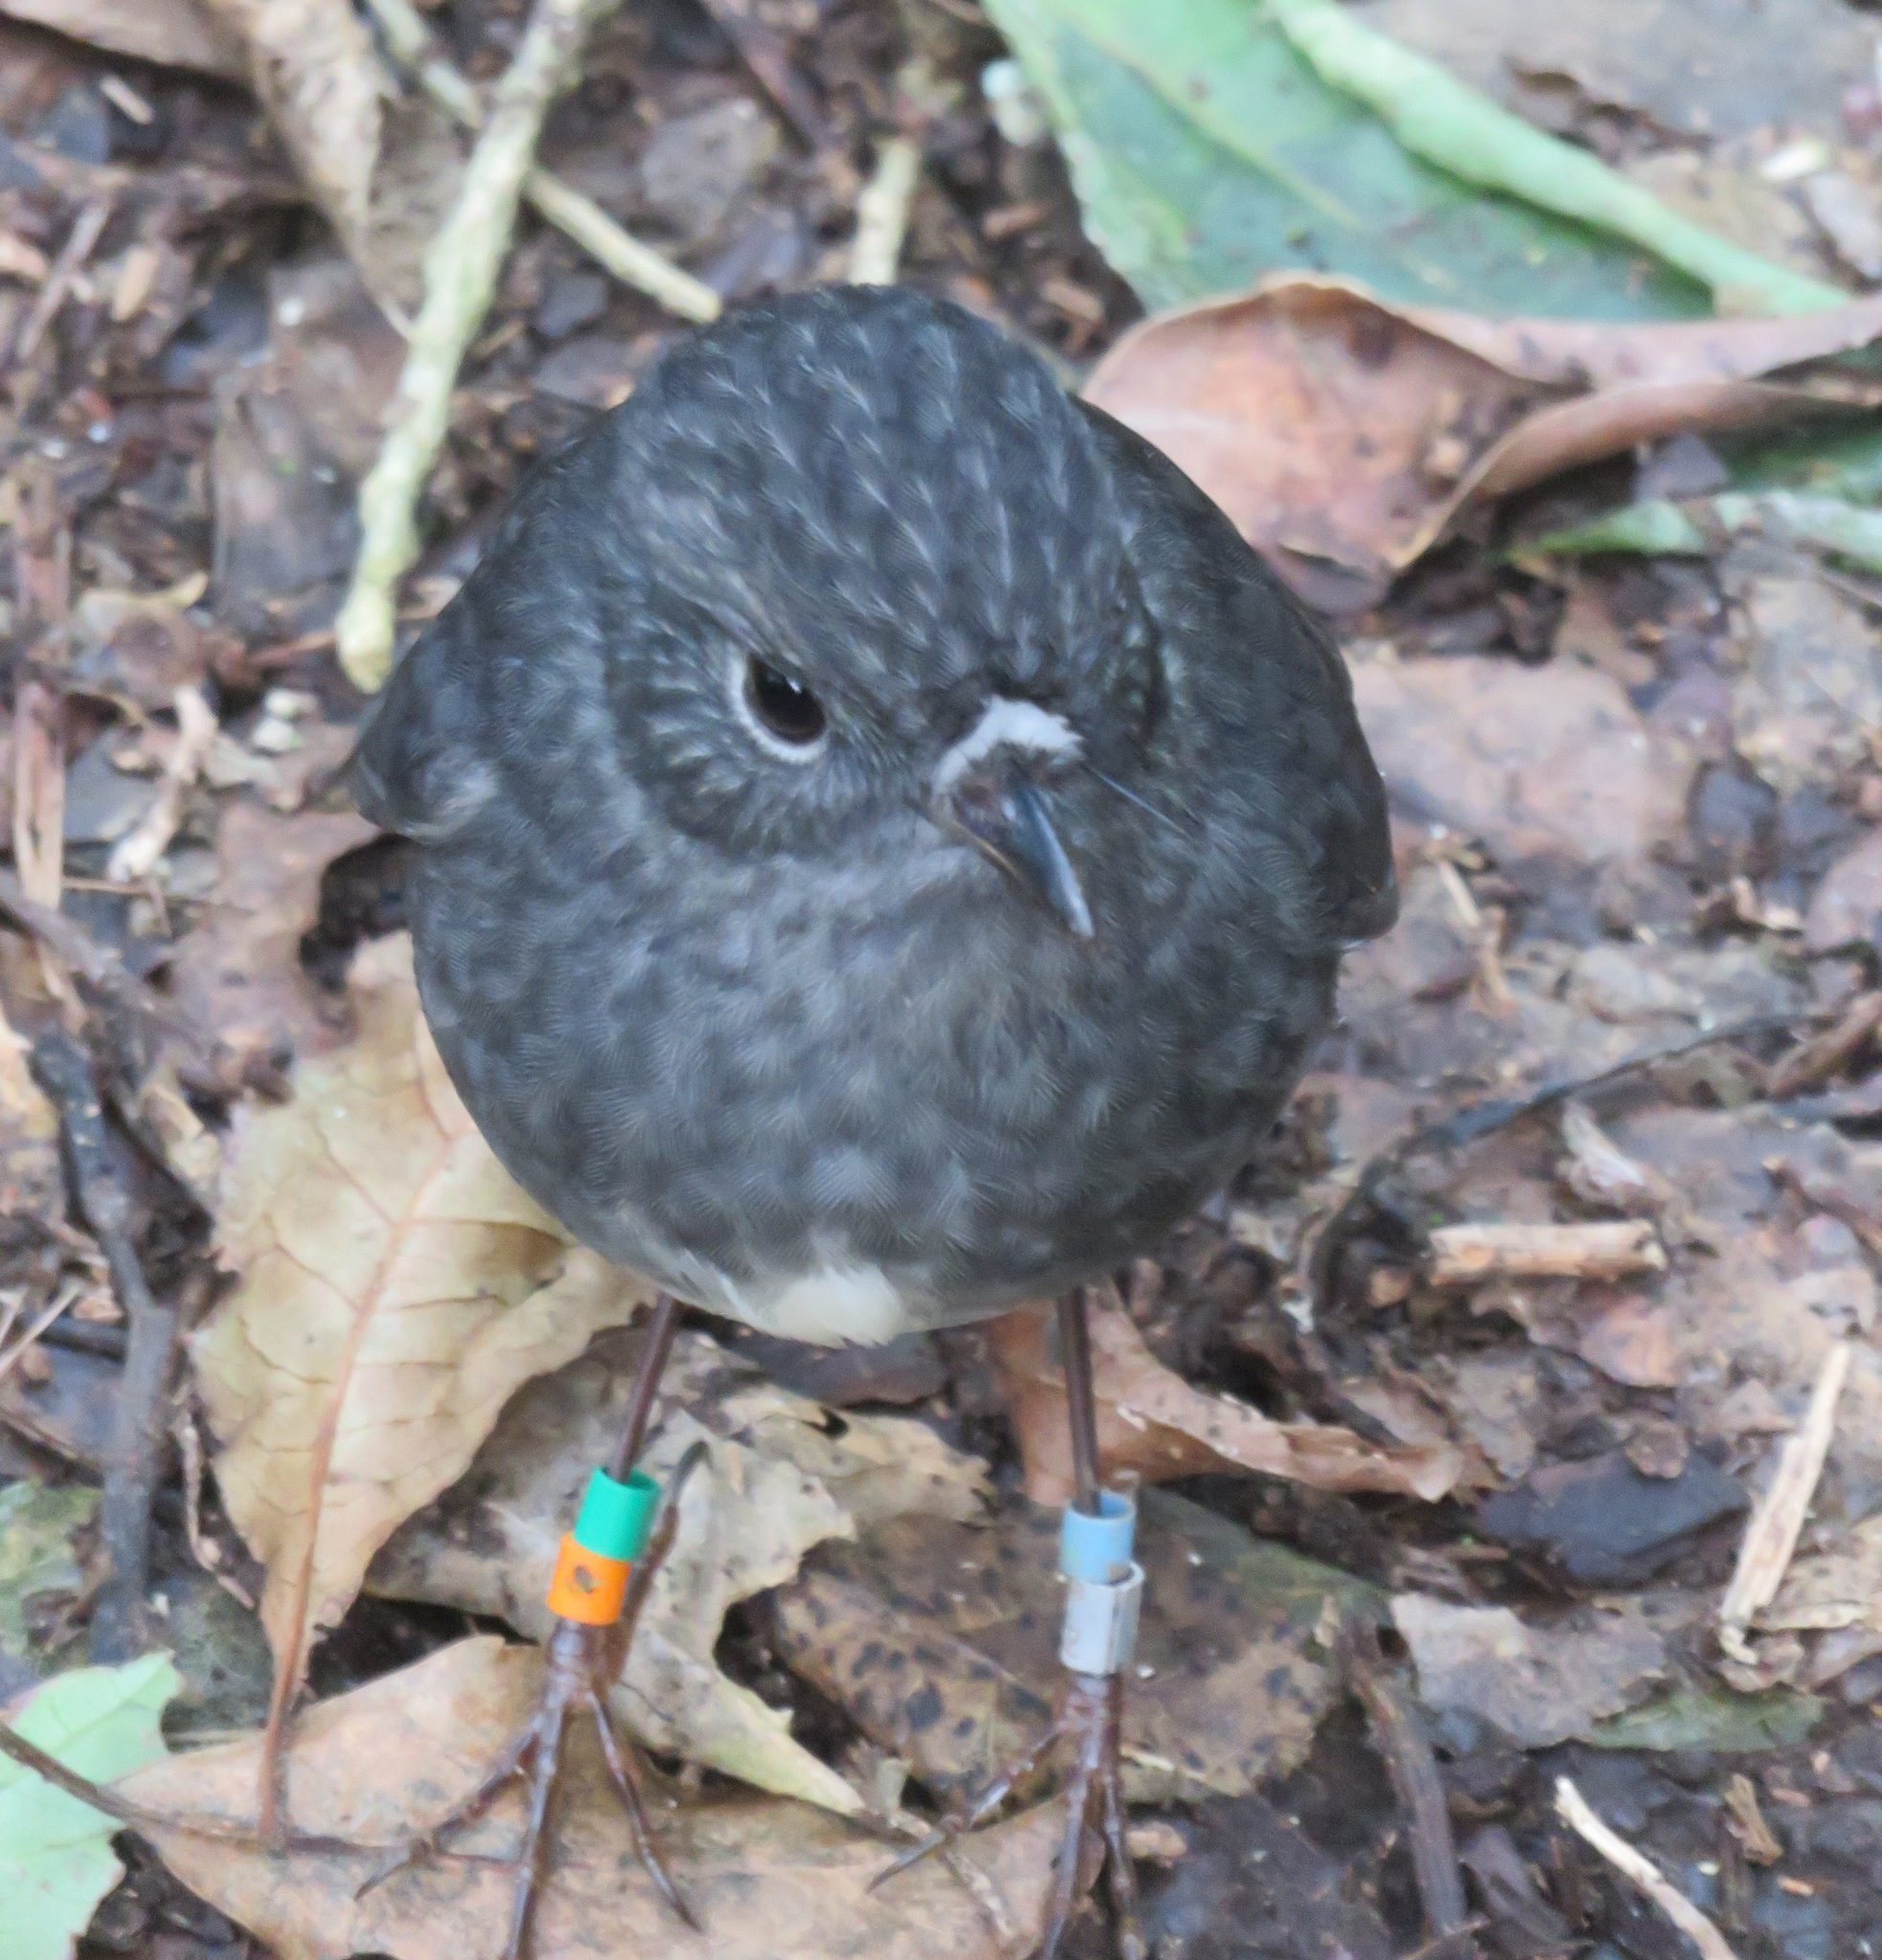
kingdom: Animalia
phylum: Chordata
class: Aves
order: Passeriformes
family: Petroicidae
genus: Petroica
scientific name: Petroica australis
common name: New zealand robin
